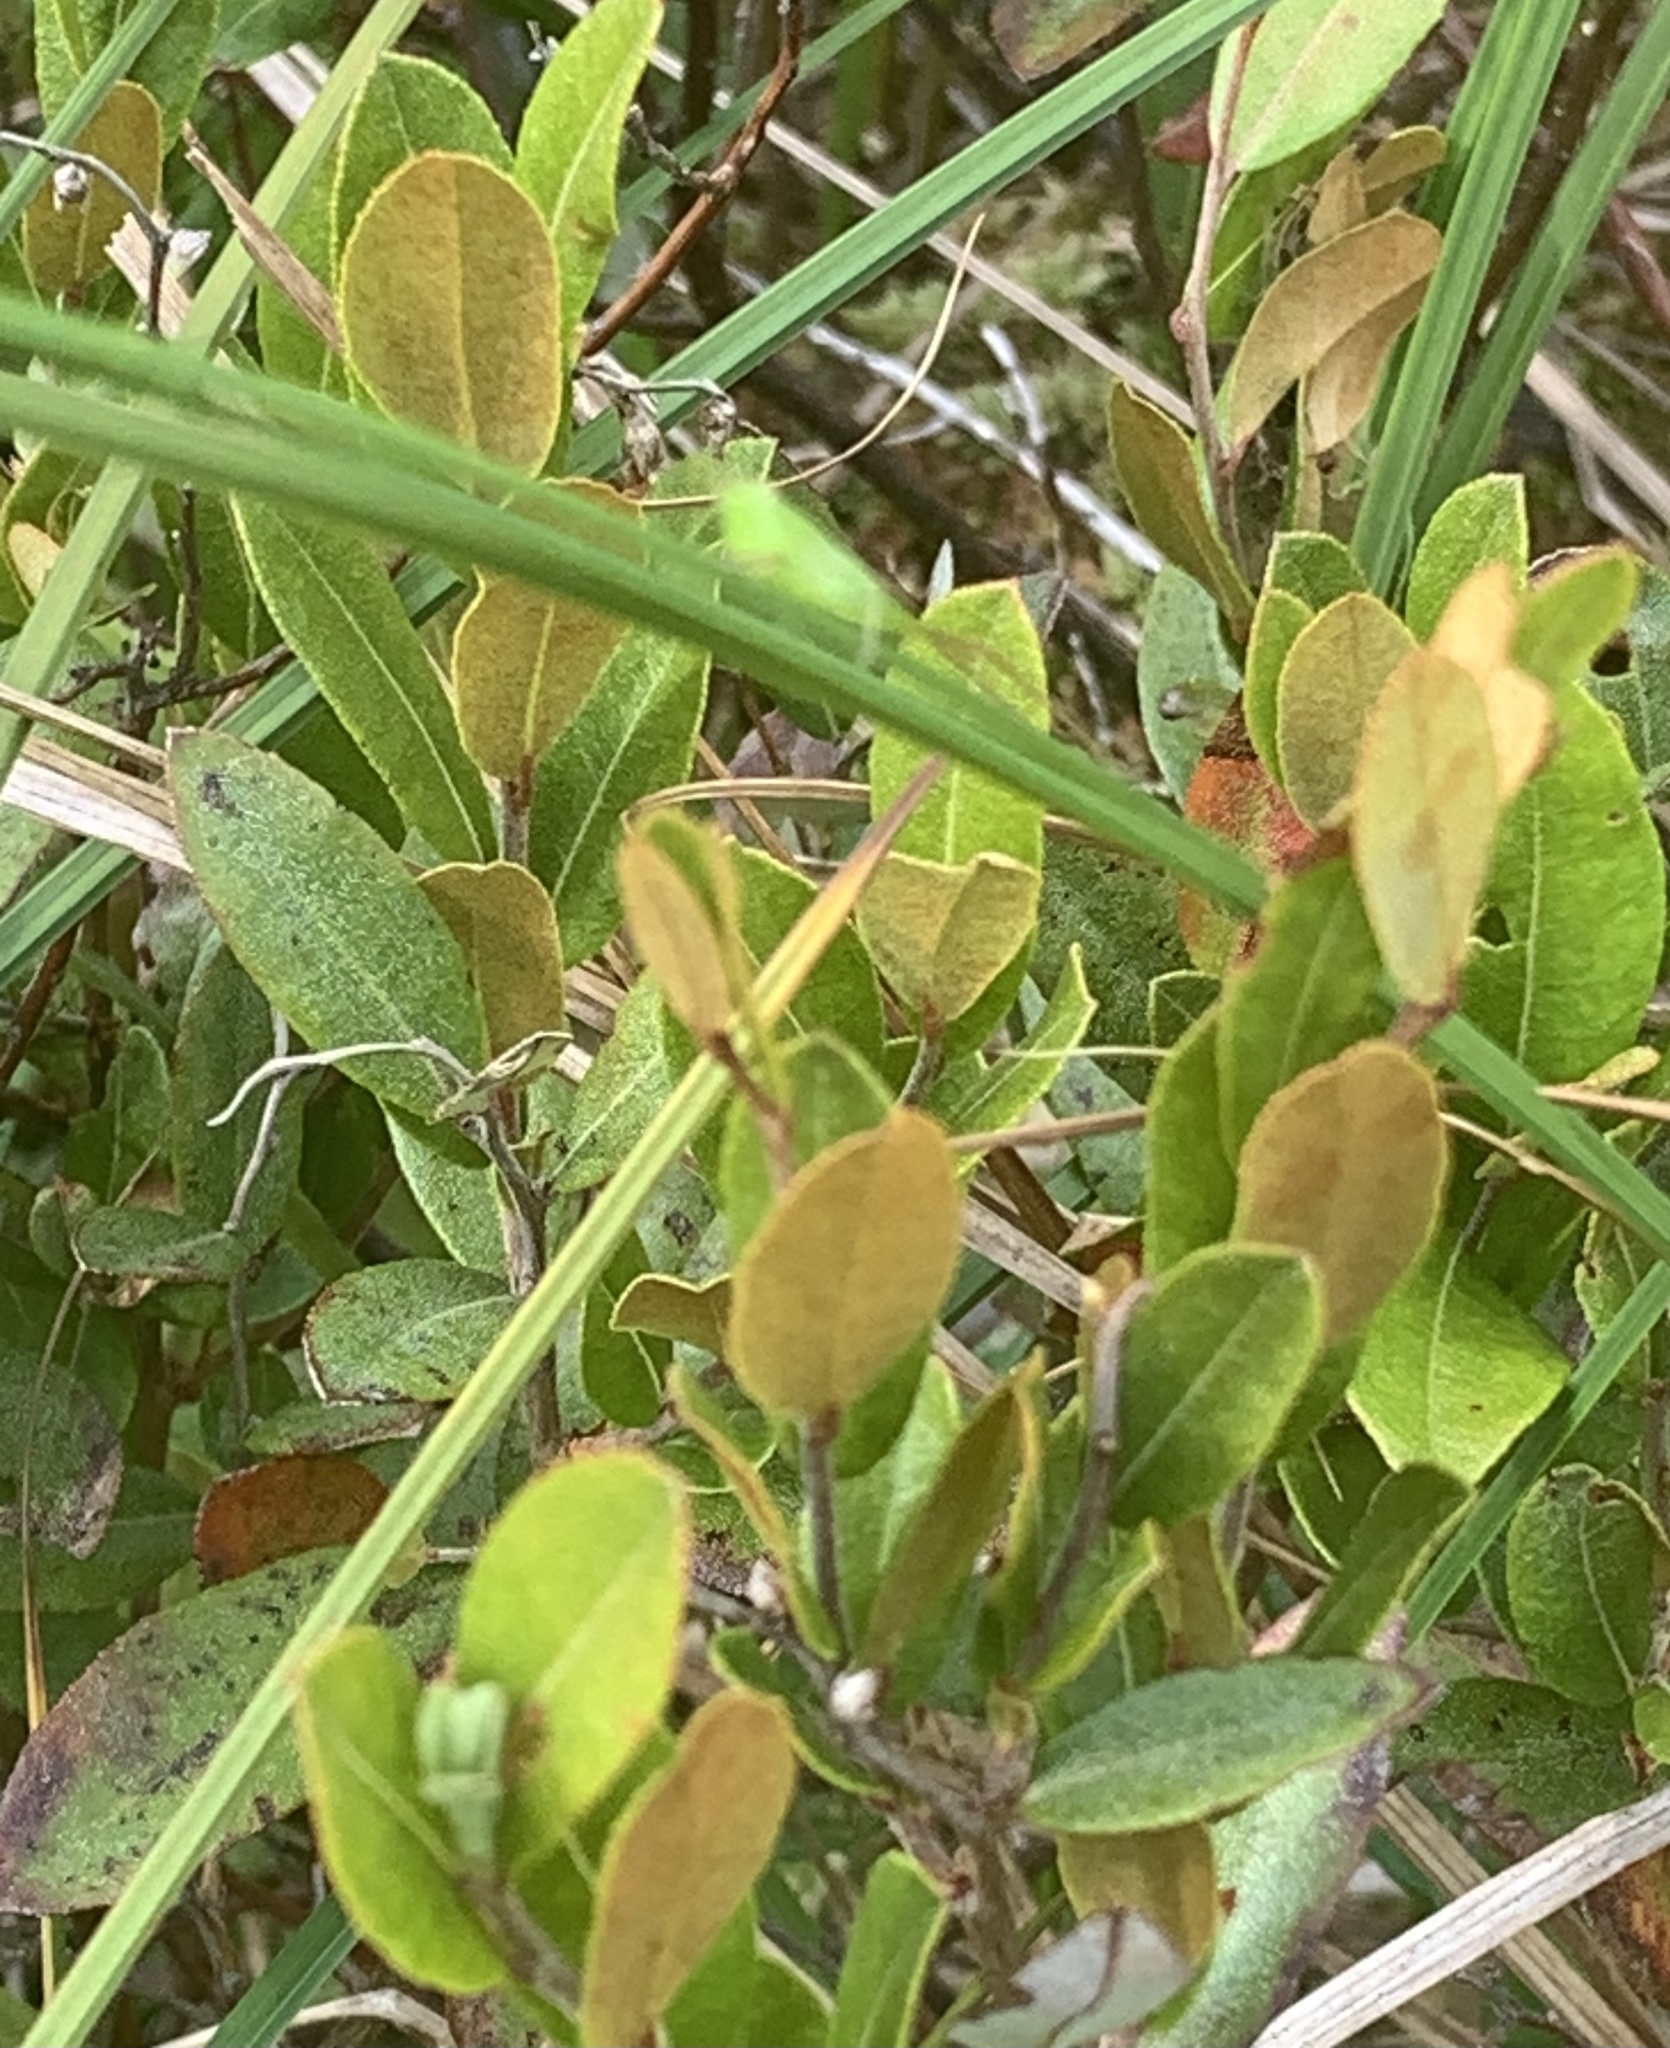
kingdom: Plantae
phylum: Tracheophyta
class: Magnoliopsida
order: Ericales
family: Ericaceae
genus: Chamaedaphne
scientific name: Chamaedaphne calyculata
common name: Leatherleaf
